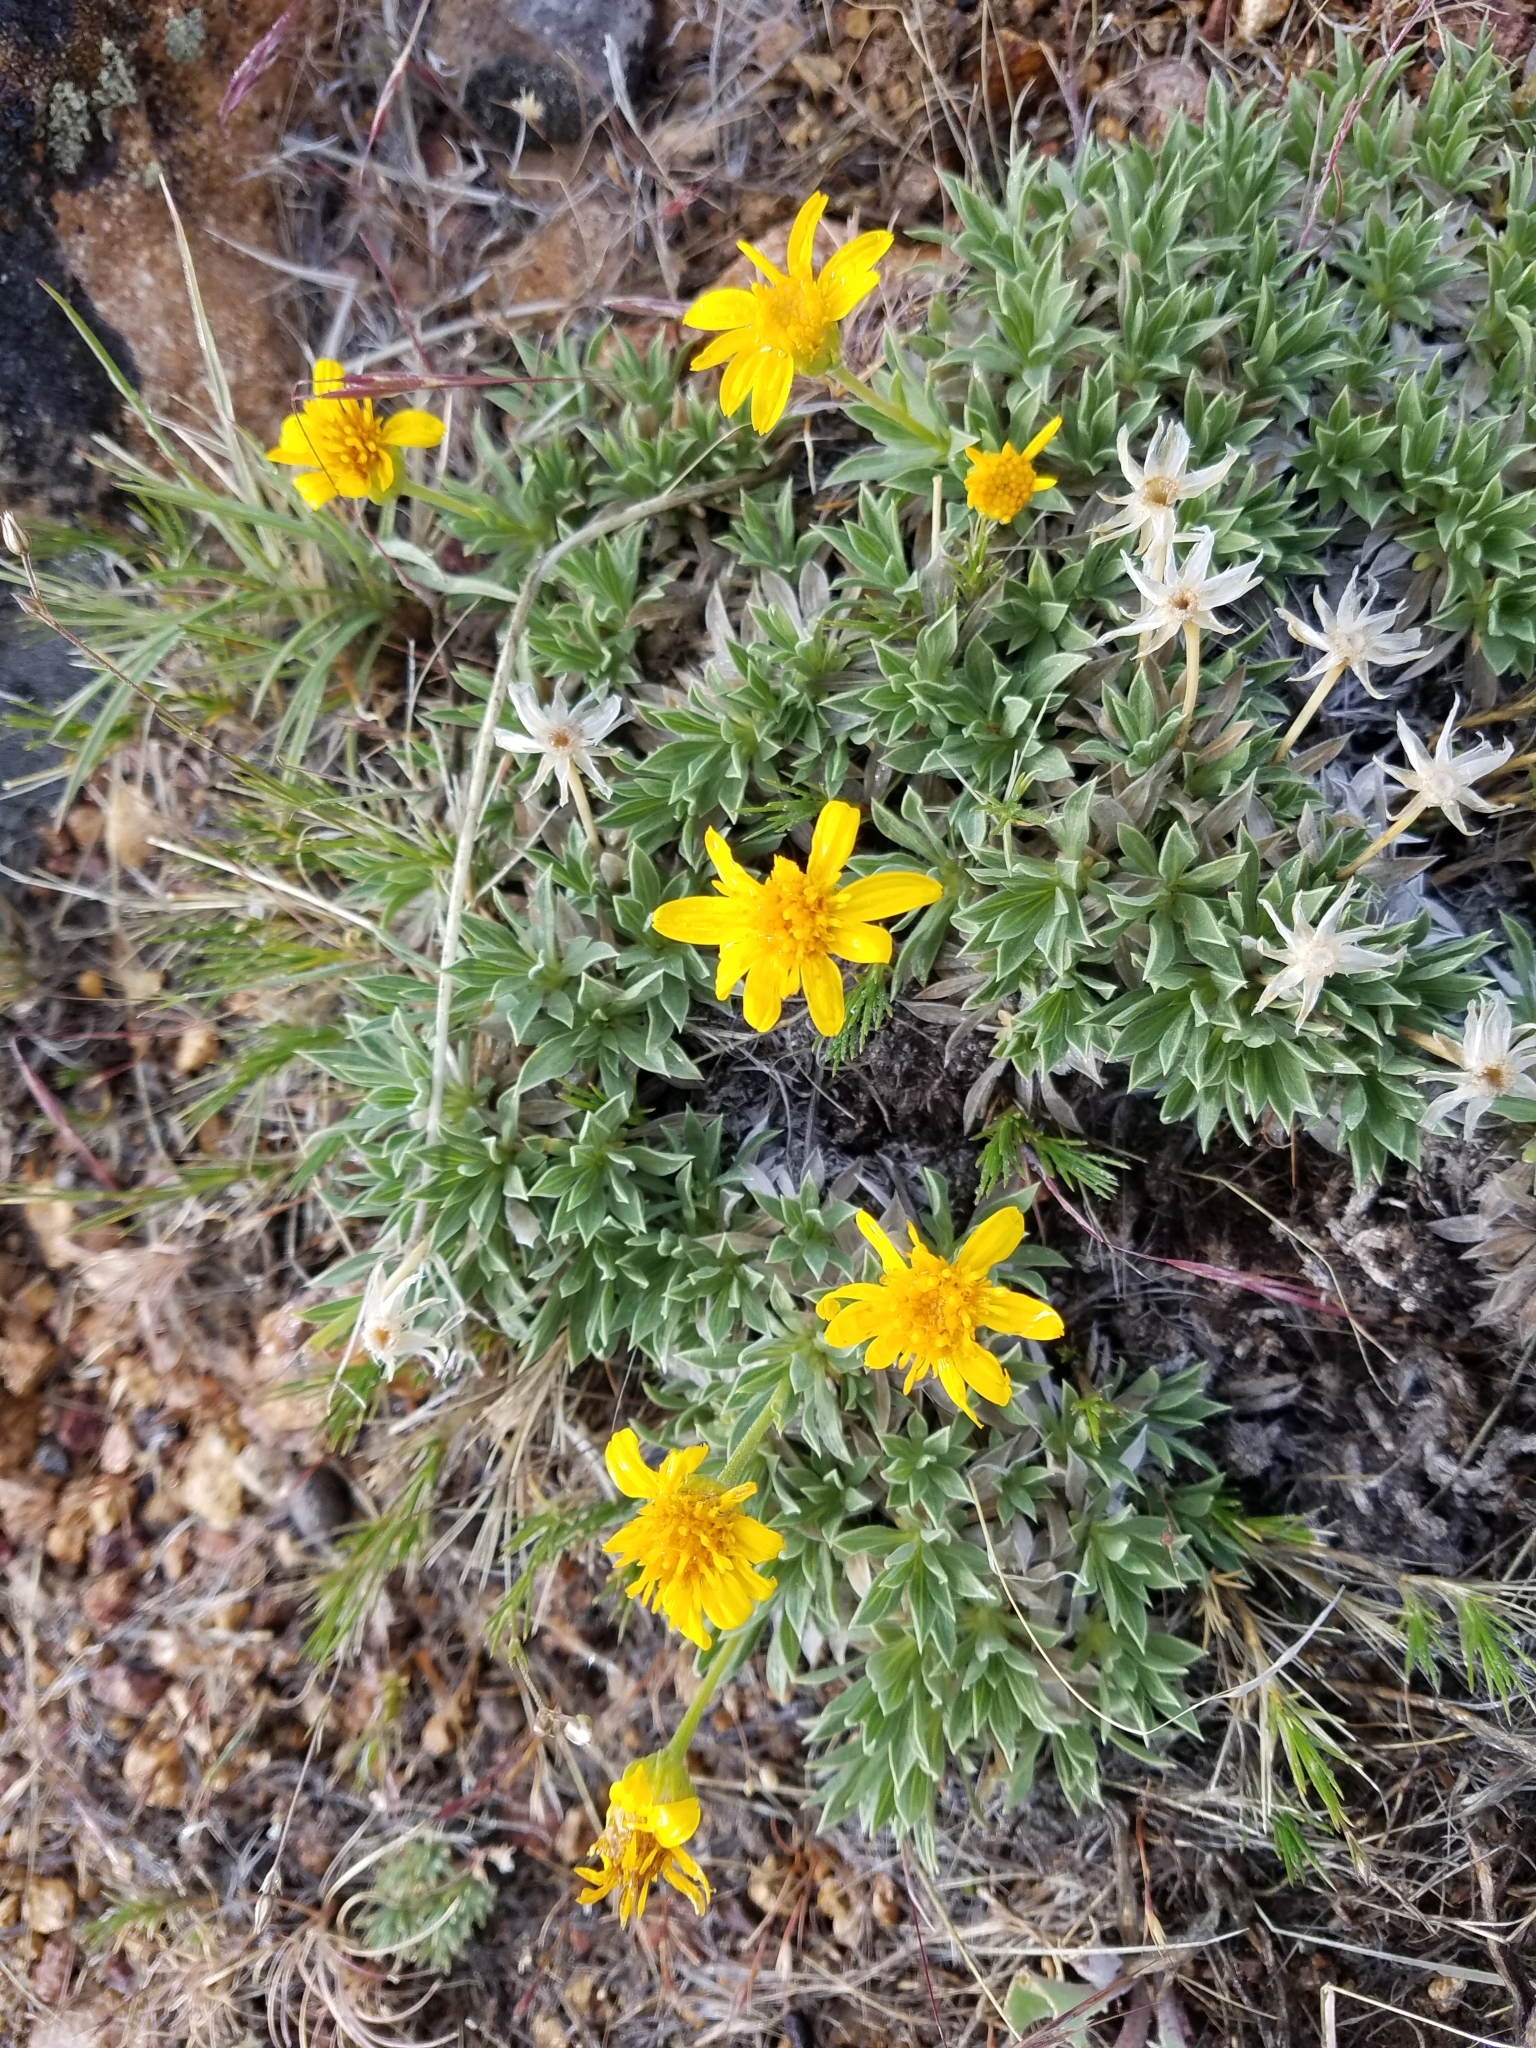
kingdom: Plantae
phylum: Tracheophyta
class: Magnoliopsida
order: Asterales
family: Asteraceae
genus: Stenotus
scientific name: Stenotus acaulis
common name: Stemless goldenweed
